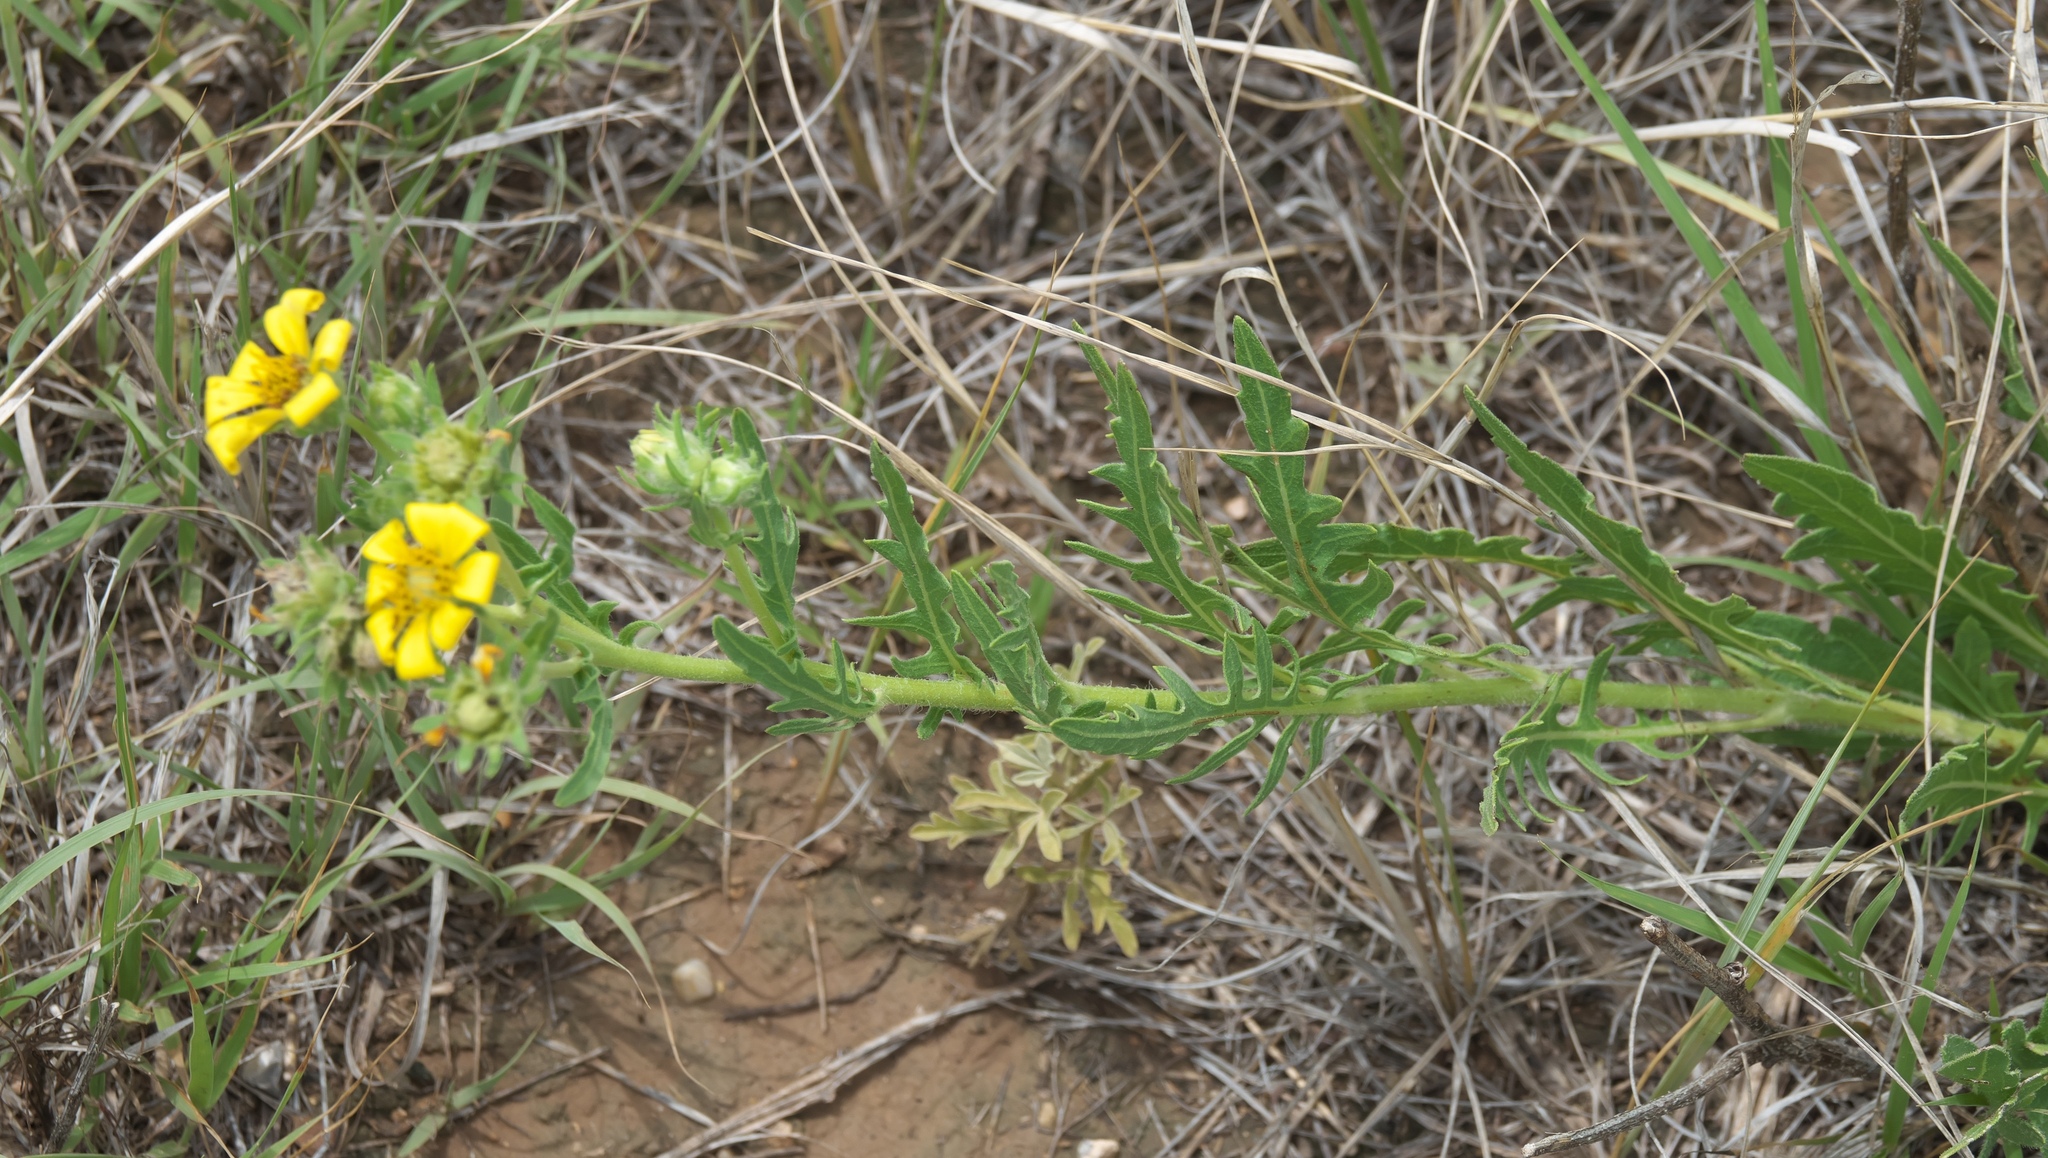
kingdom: Plantae
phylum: Tracheophyta
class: Magnoliopsida
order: Asterales
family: Asteraceae
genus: Engelmannia
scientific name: Engelmannia peristenia
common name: Engelmann's daisy
